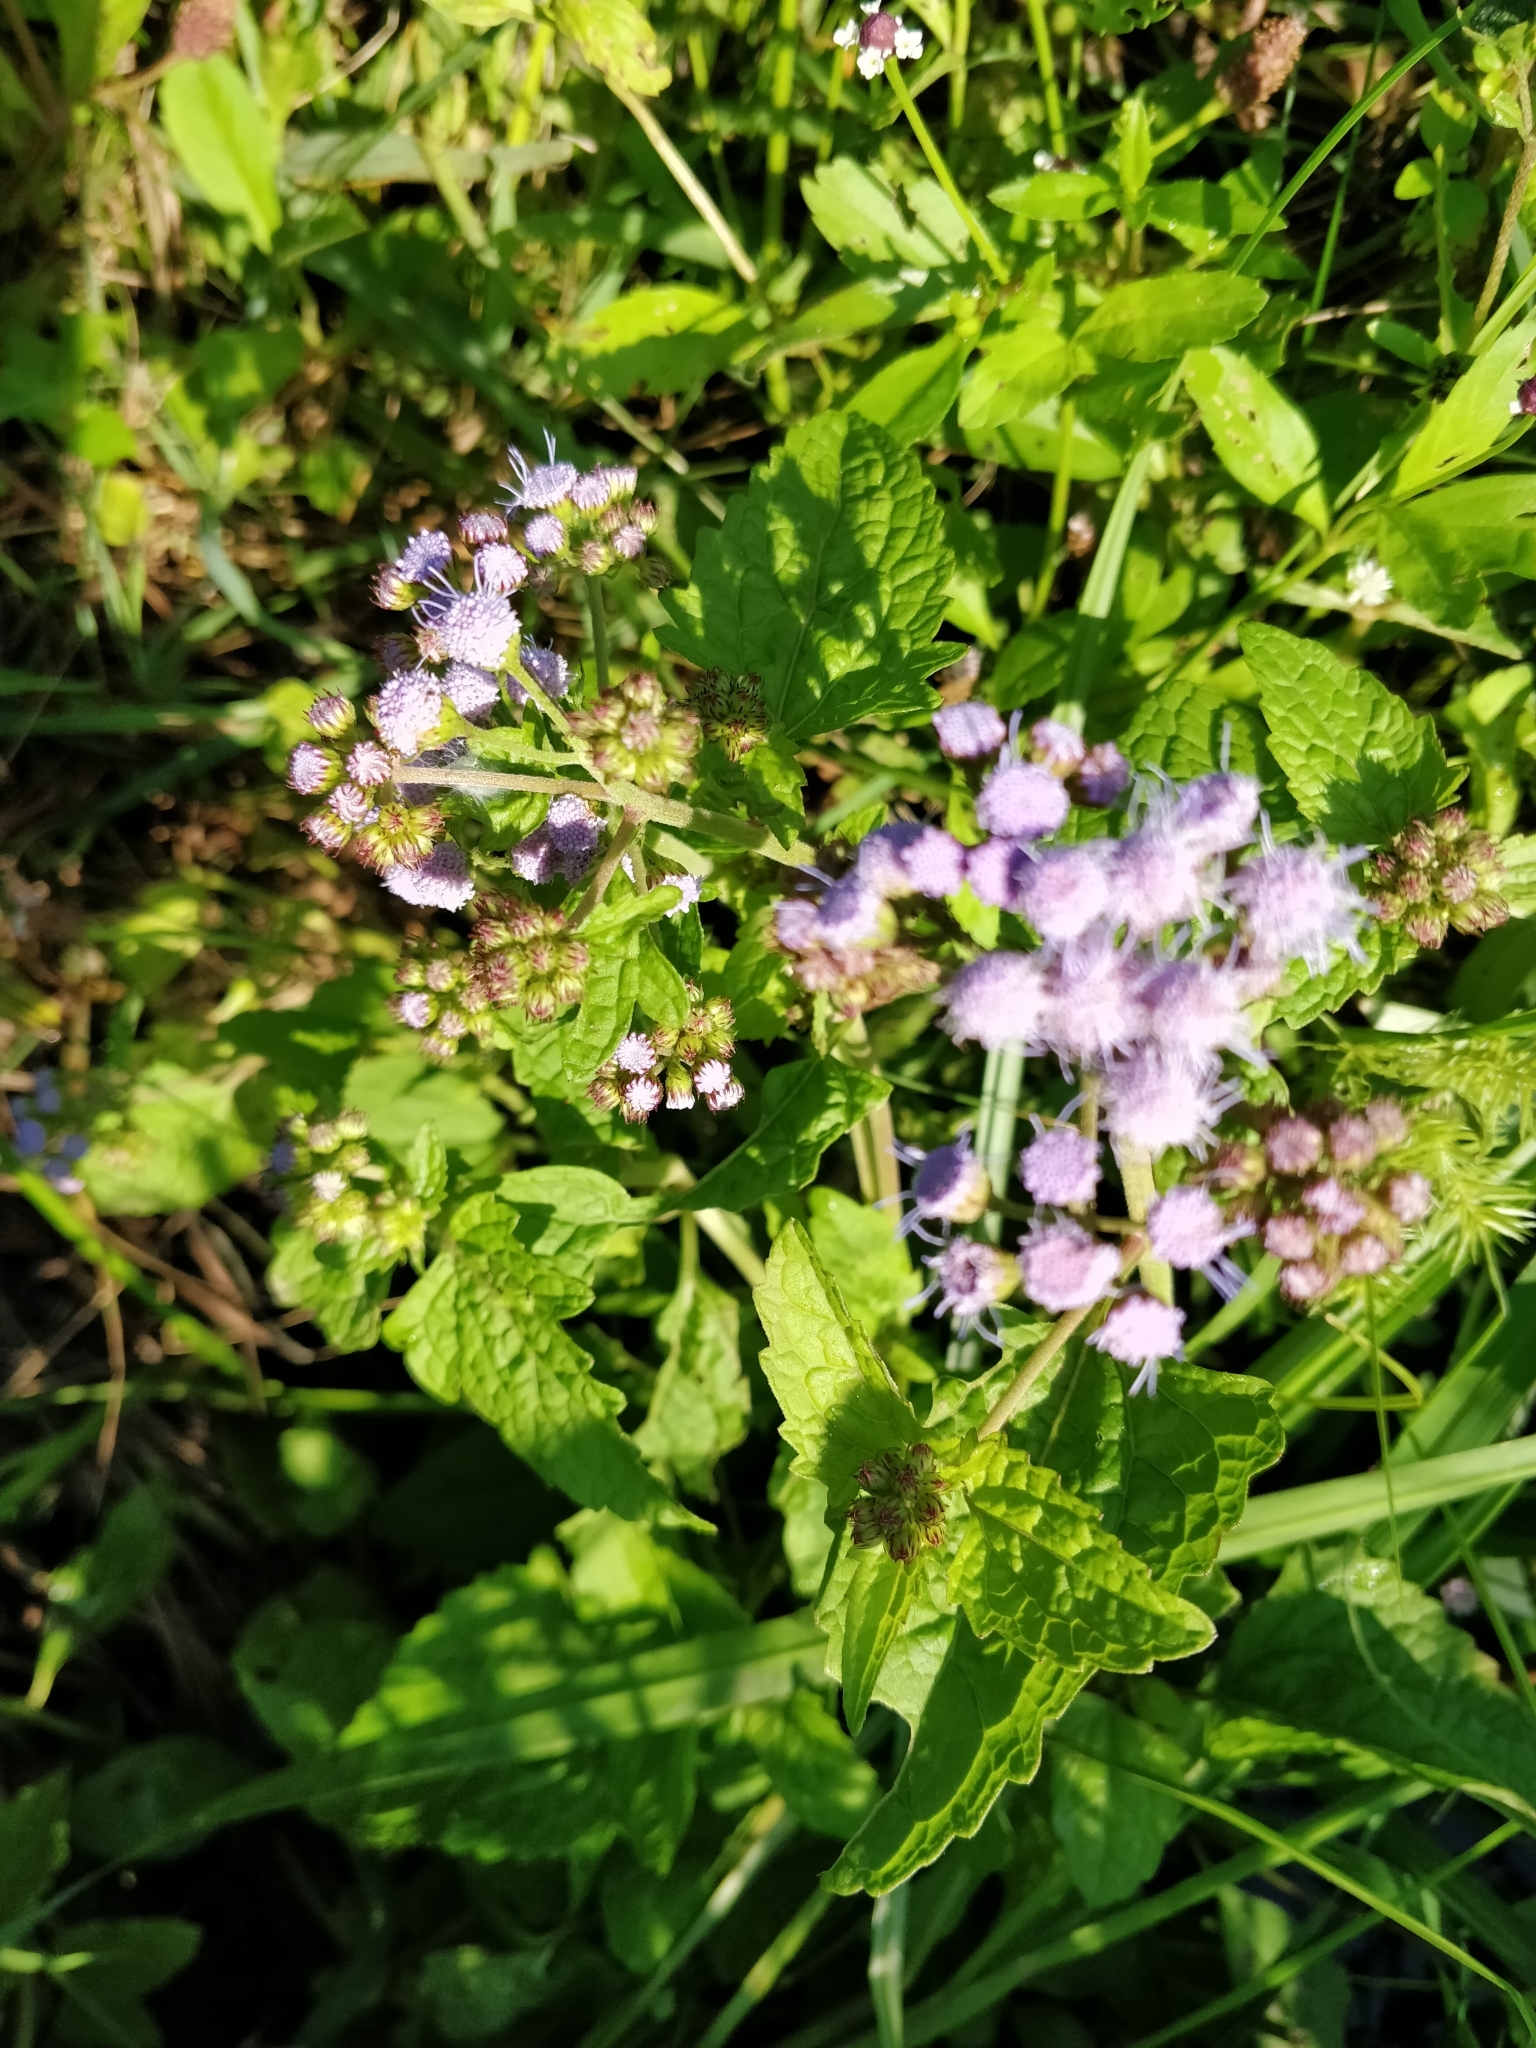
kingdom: Plantae
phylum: Tracheophyta
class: Magnoliopsida
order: Asterales
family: Asteraceae
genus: Conoclinium
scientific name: Conoclinium coelestinum
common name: Blue mistflower
